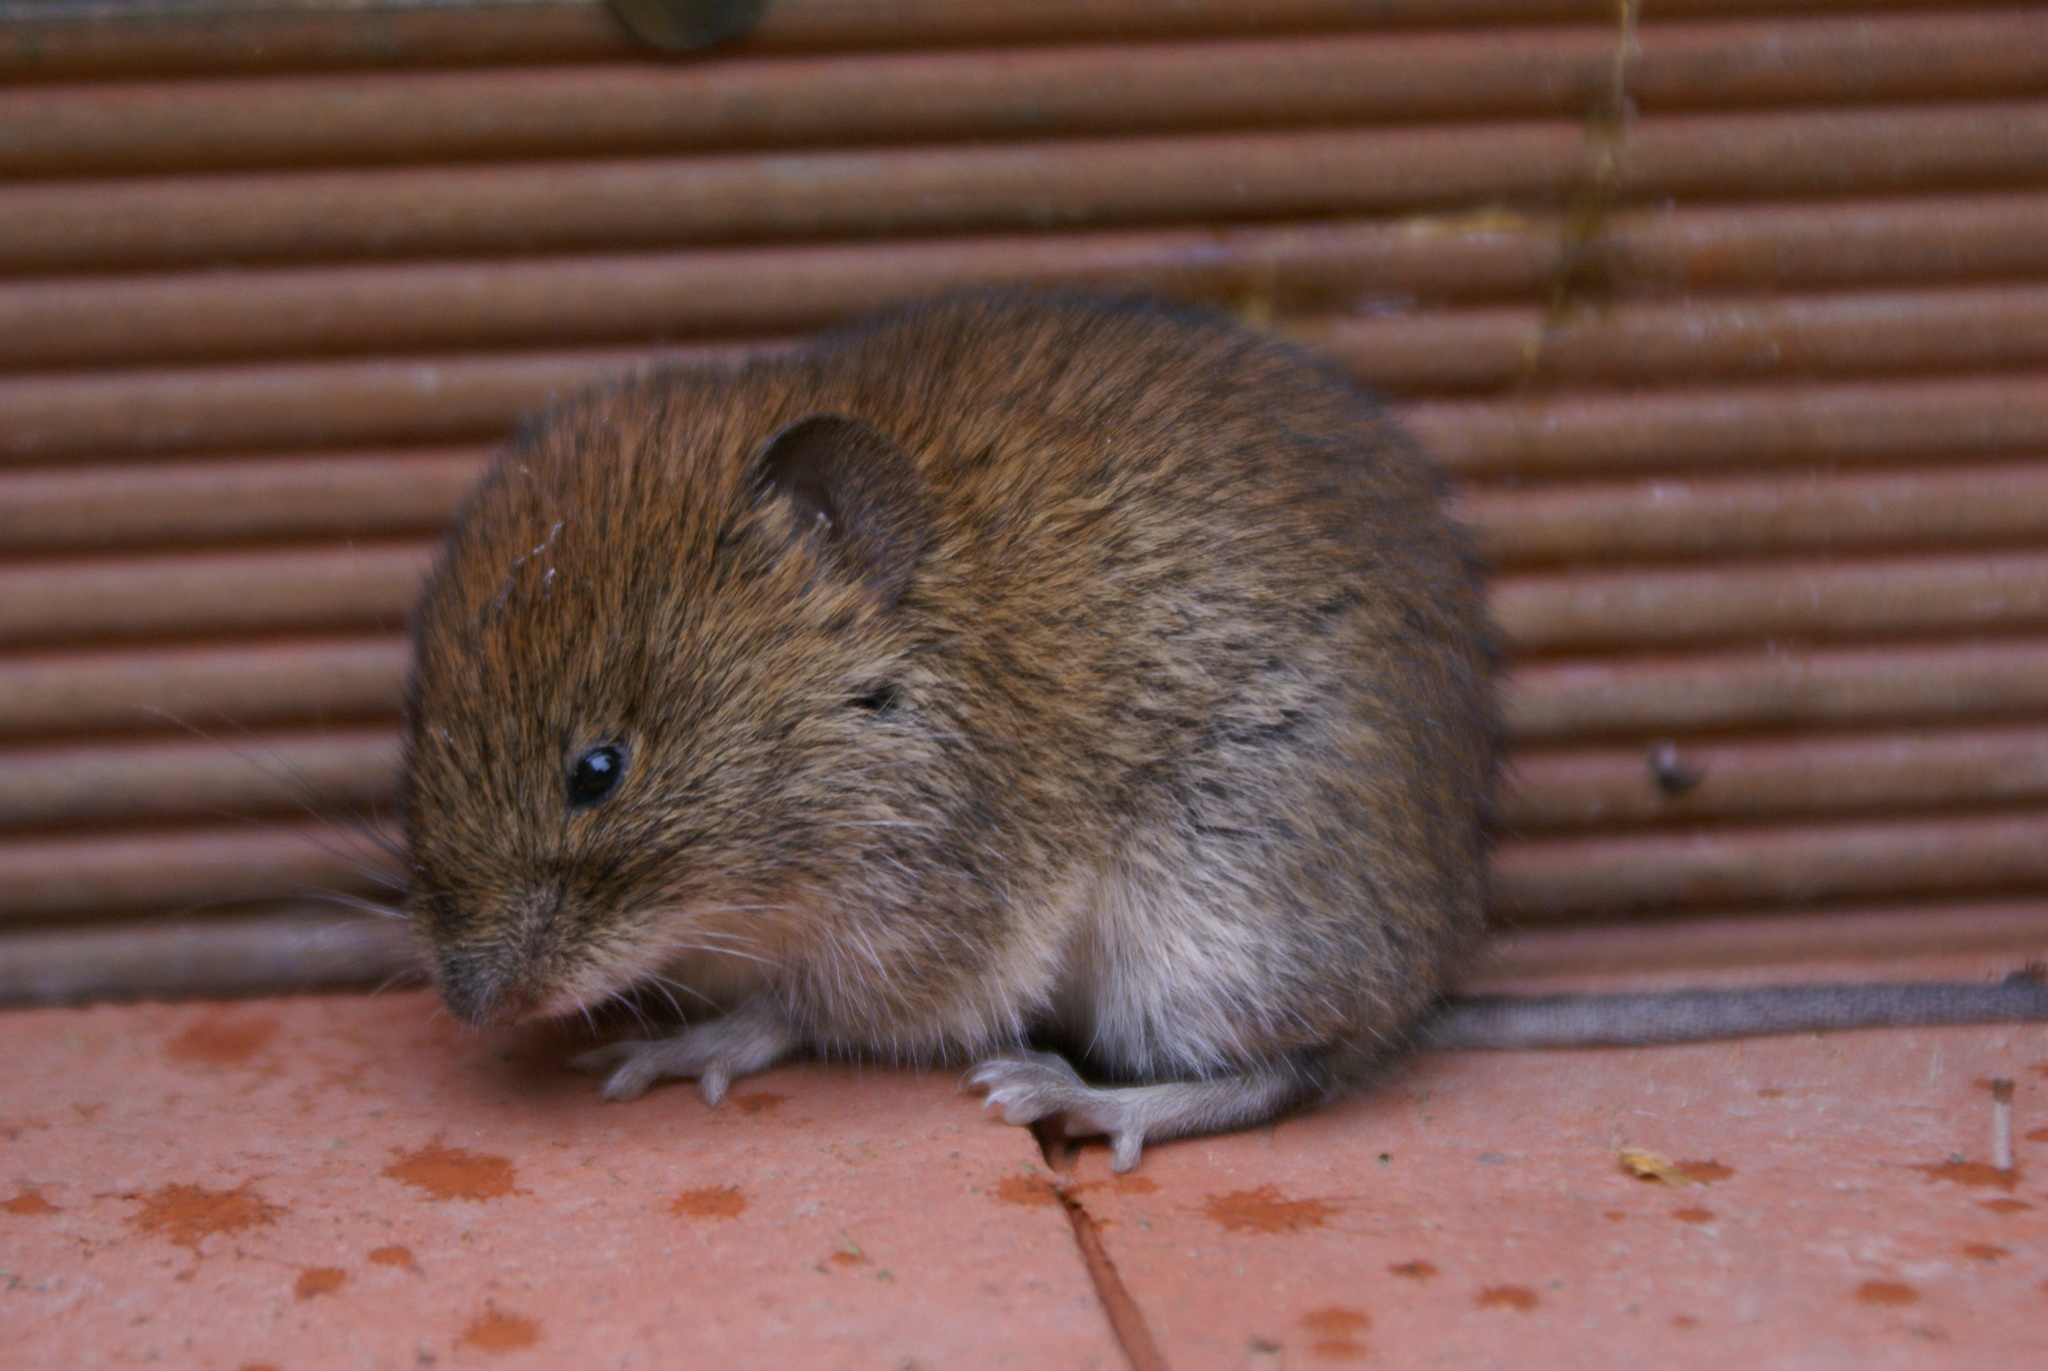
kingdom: Animalia
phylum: Chordata
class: Mammalia
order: Rodentia
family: Cricetidae
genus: Myodes
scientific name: Myodes glareolus
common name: Bank vole
